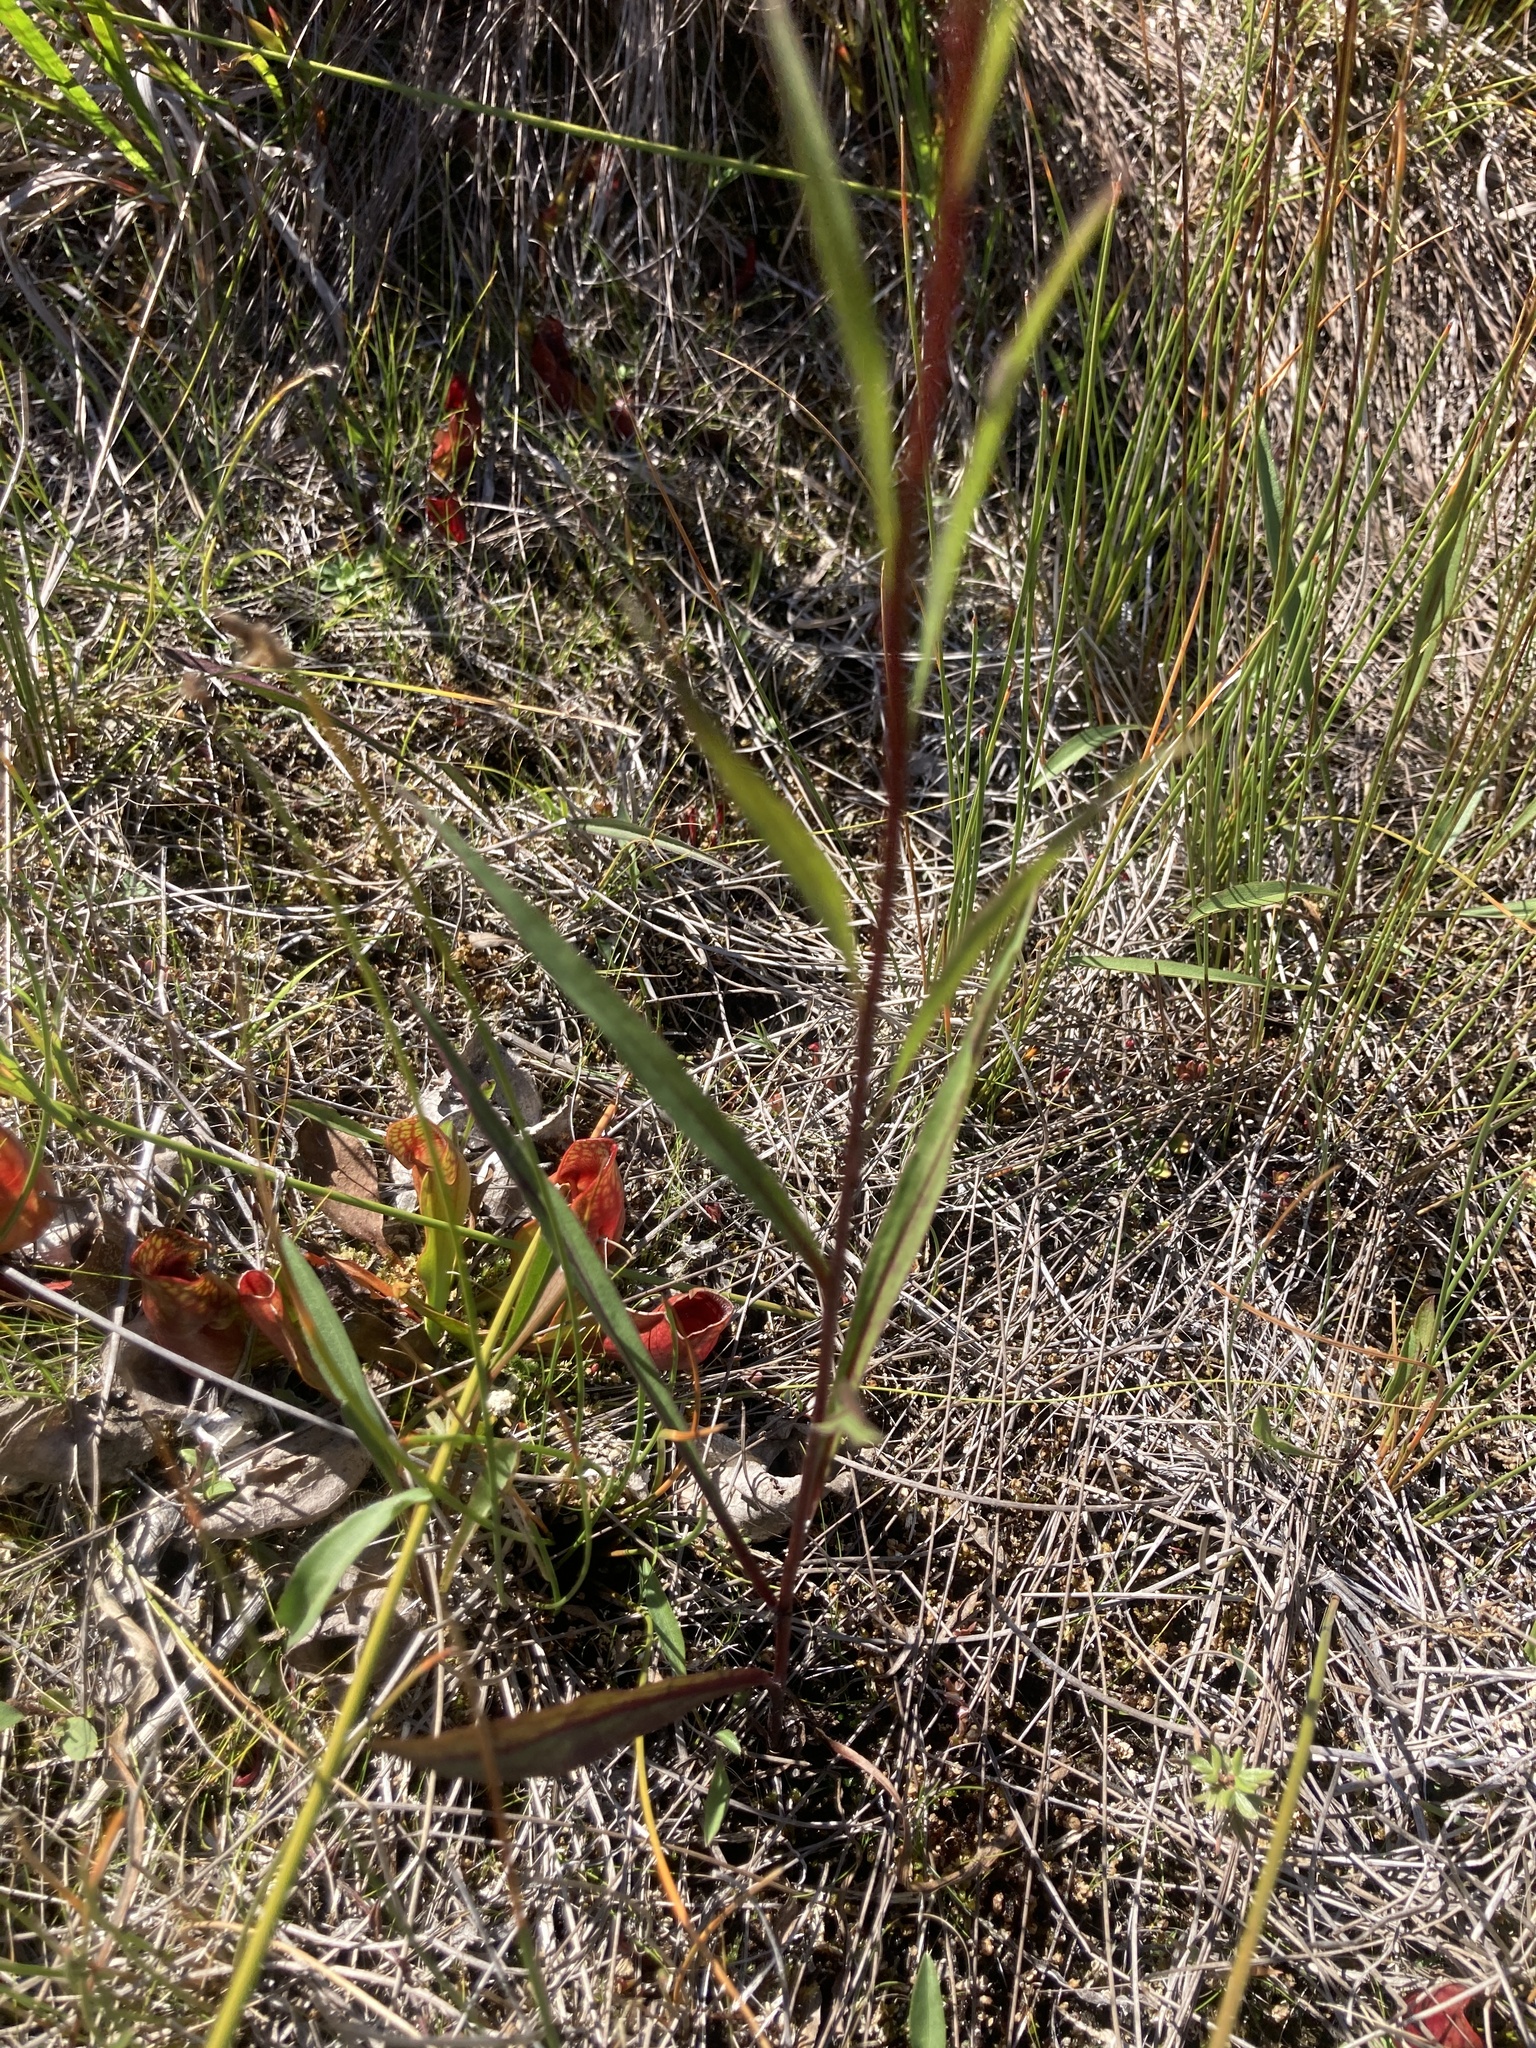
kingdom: Plantae
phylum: Tracheophyta
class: Magnoliopsida
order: Asterales
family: Asteraceae
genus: Solidago
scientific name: Solidago uliginosa
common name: Bog goldenrod
